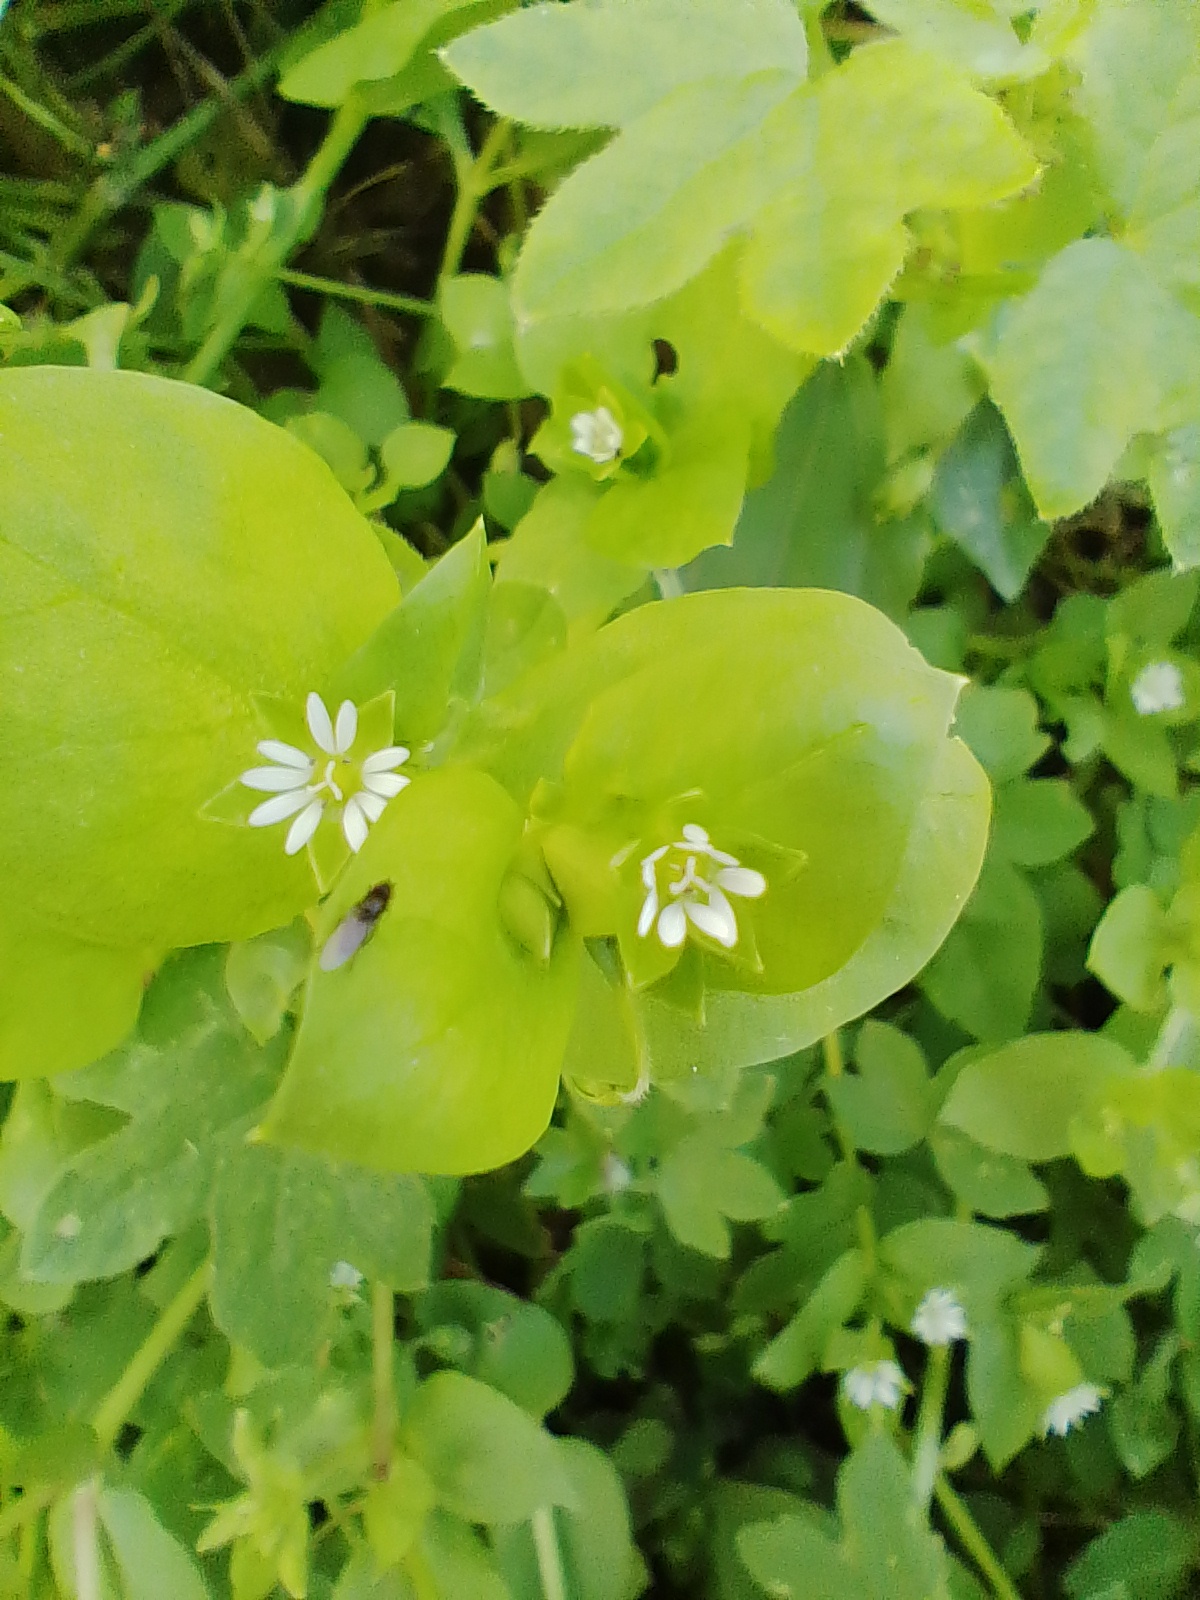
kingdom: Plantae
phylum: Tracheophyta
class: Magnoliopsida
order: Caryophyllales
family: Caryophyllaceae
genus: Stellaria
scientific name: Stellaria media
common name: Common chickweed
